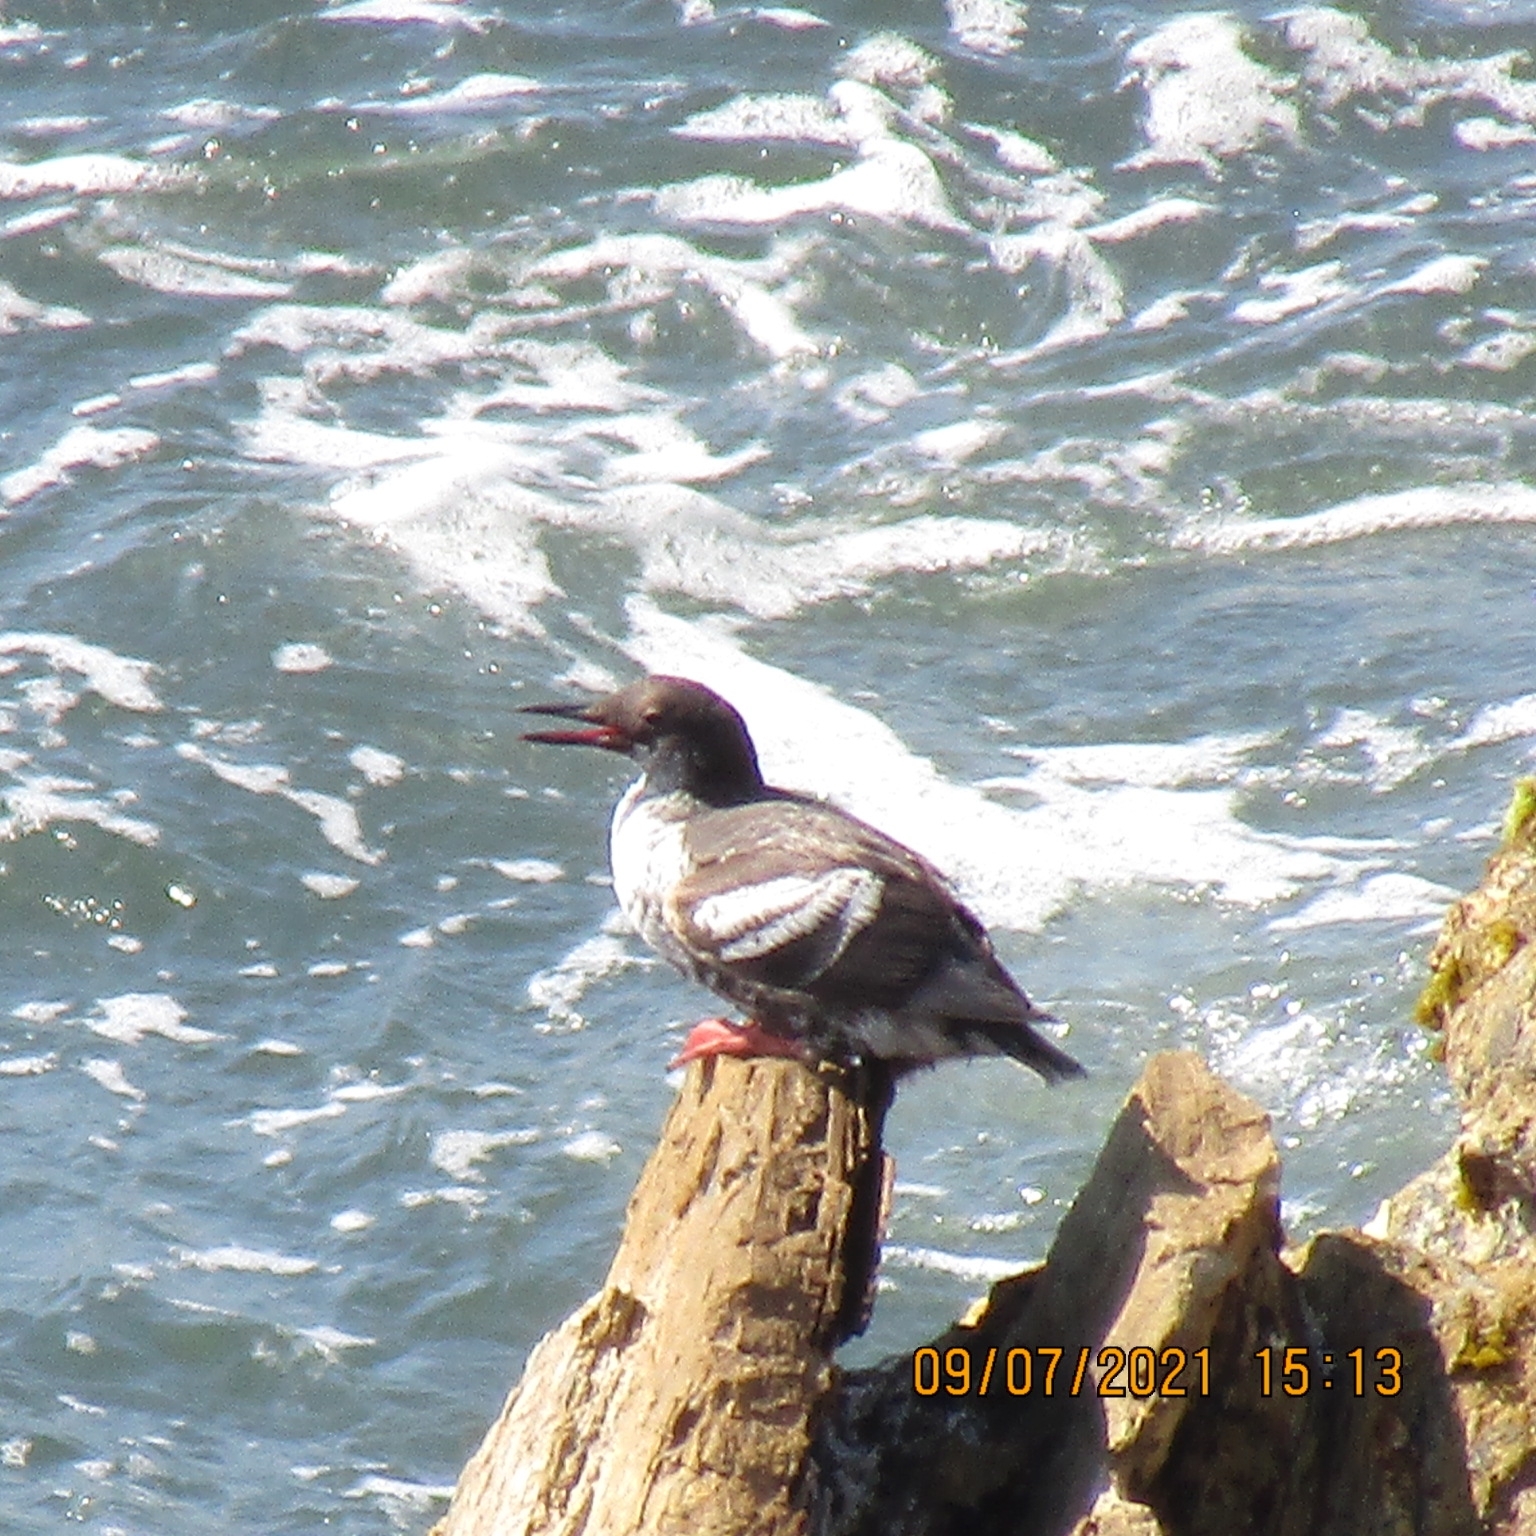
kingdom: Animalia
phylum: Chordata
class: Aves
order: Charadriiformes
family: Alcidae
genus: Cepphus
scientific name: Cepphus columba
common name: Pigeon guillemot
